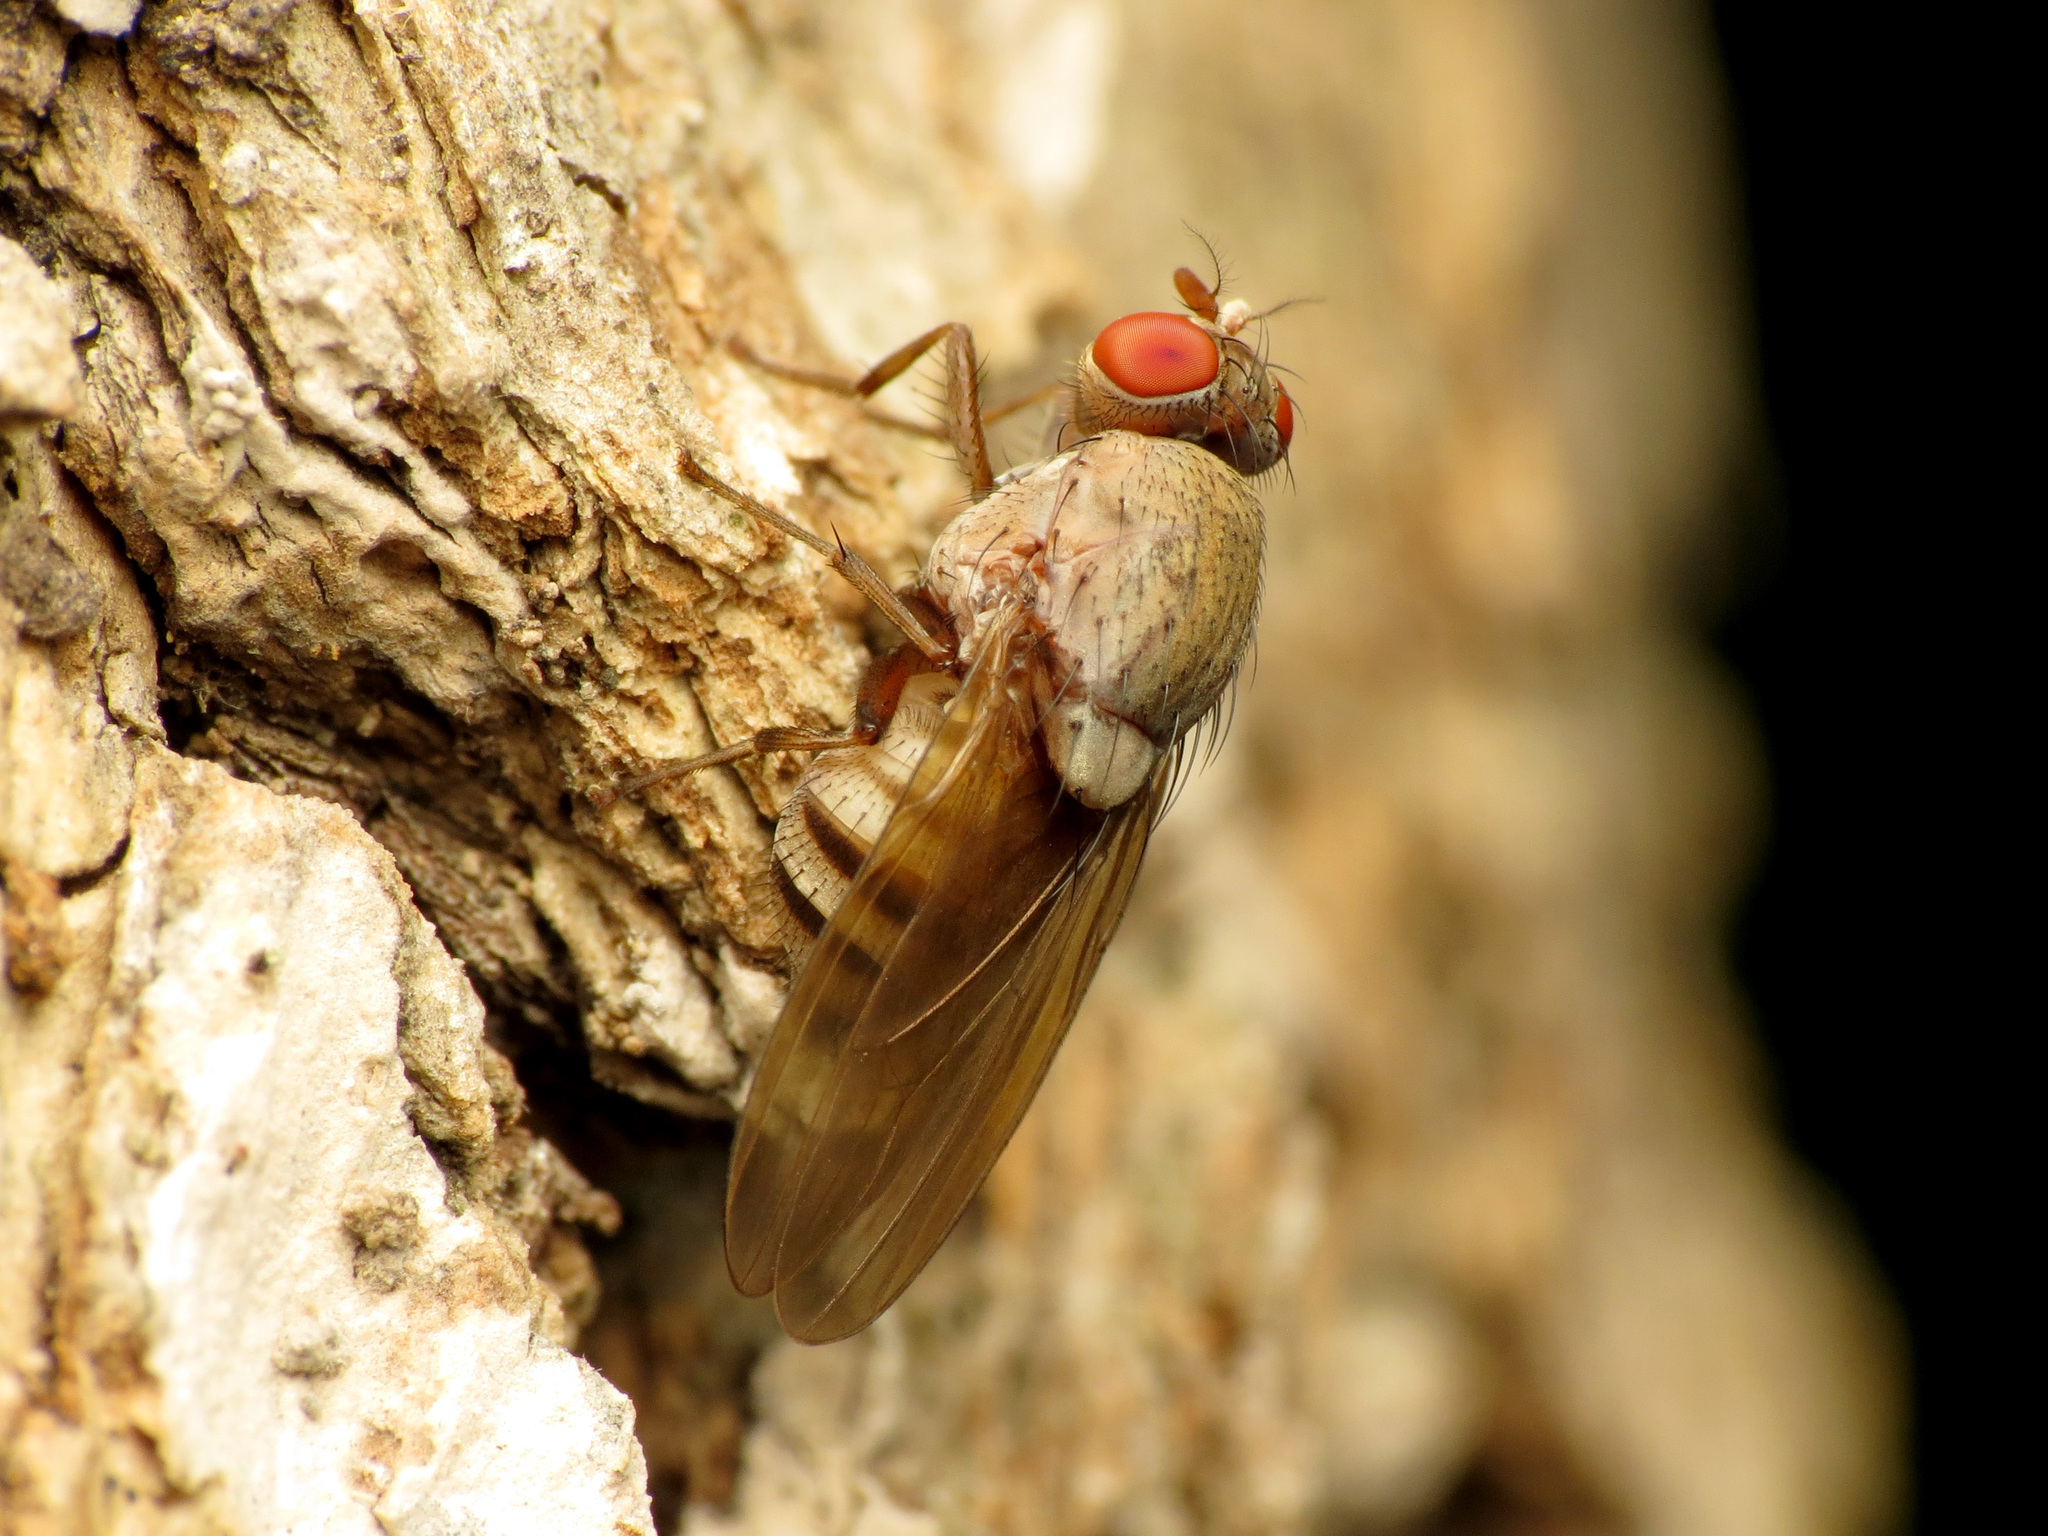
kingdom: Animalia
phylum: Arthropoda
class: Insecta
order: Diptera
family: Lauxaniidae
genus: Minettia
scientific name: Minettia magna
